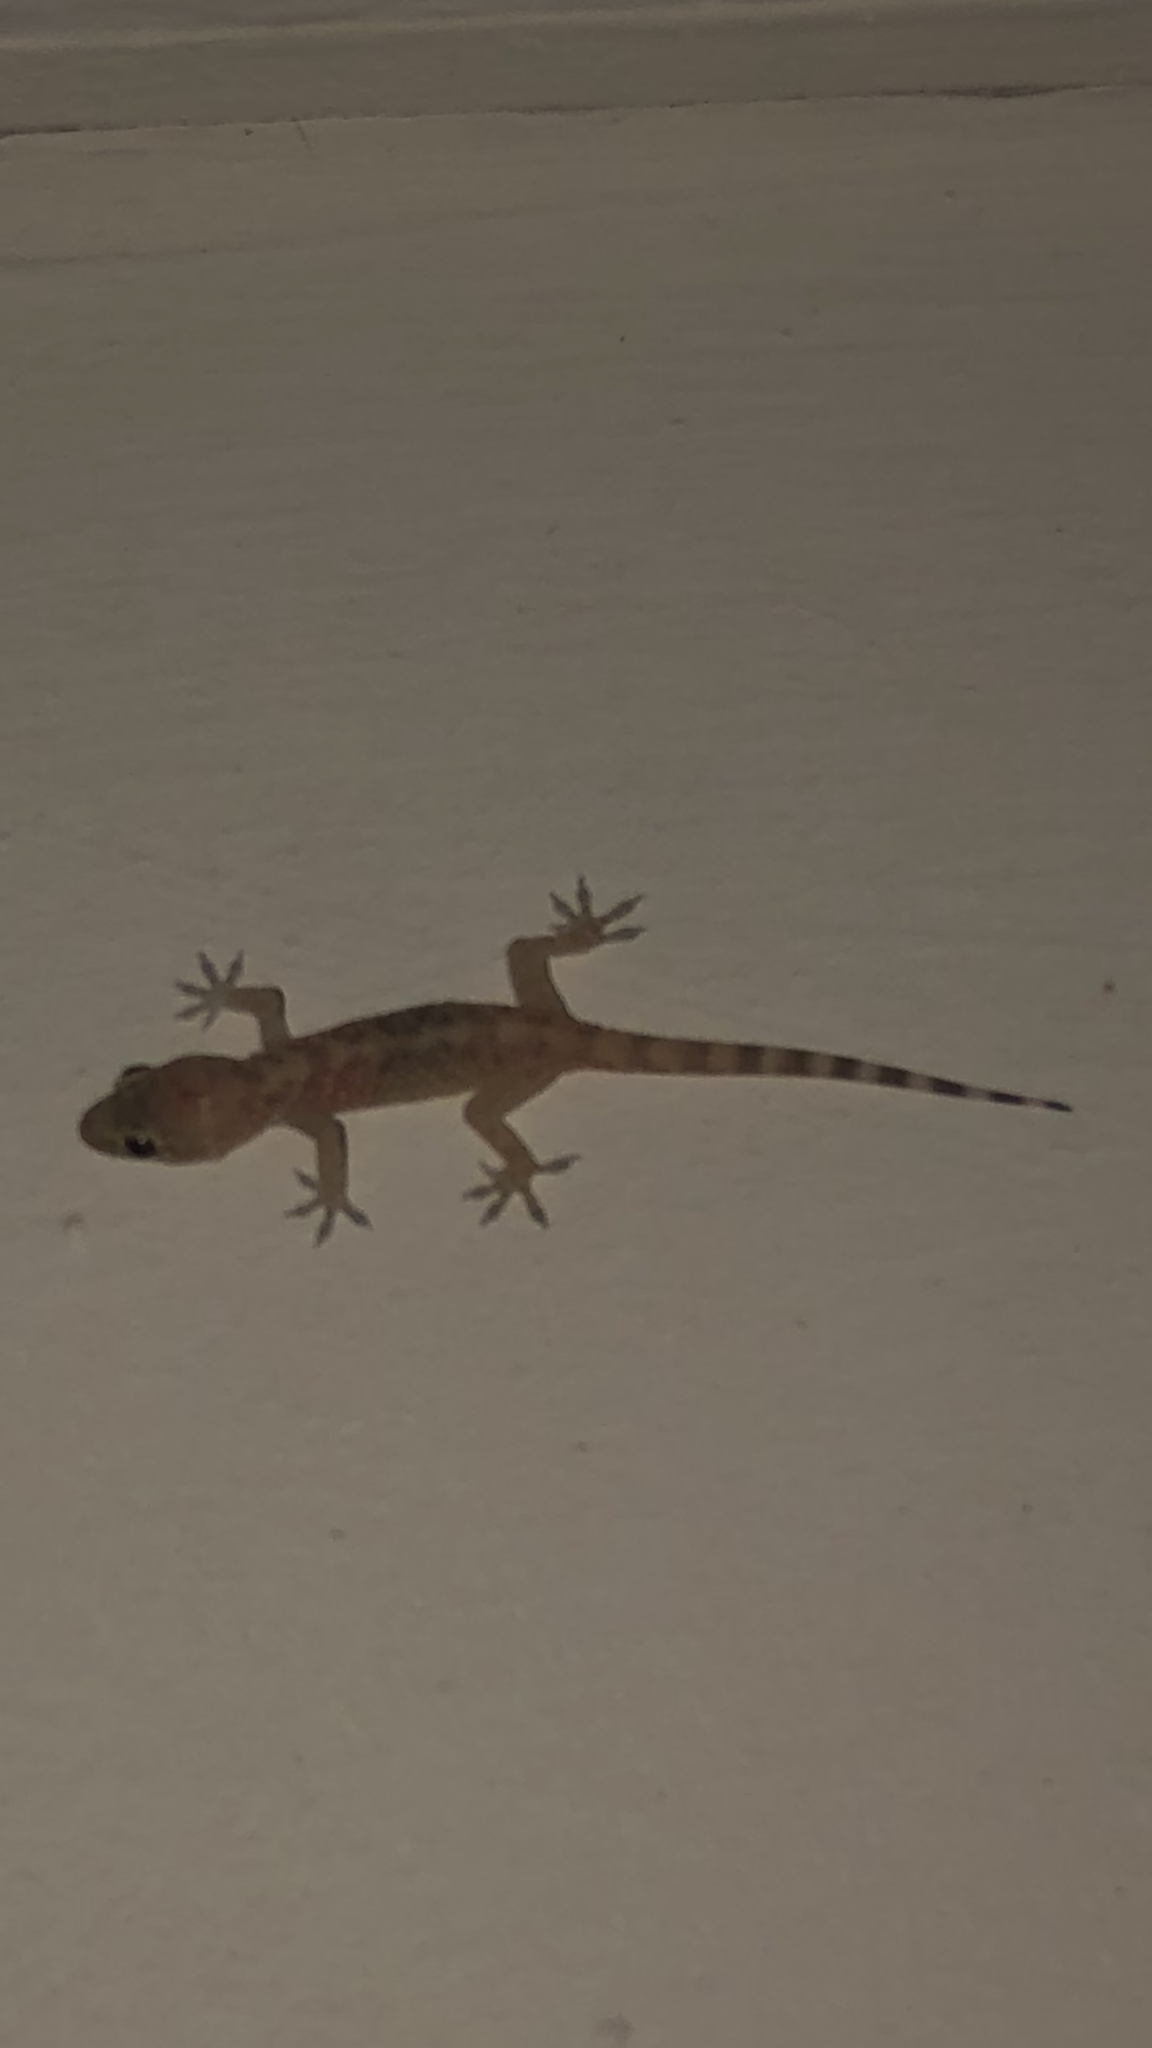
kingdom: Animalia
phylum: Chordata
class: Squamata
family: Gekkonidae
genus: Hemidactylus
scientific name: Hemidactylus turcicus
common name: Turkish gecko
